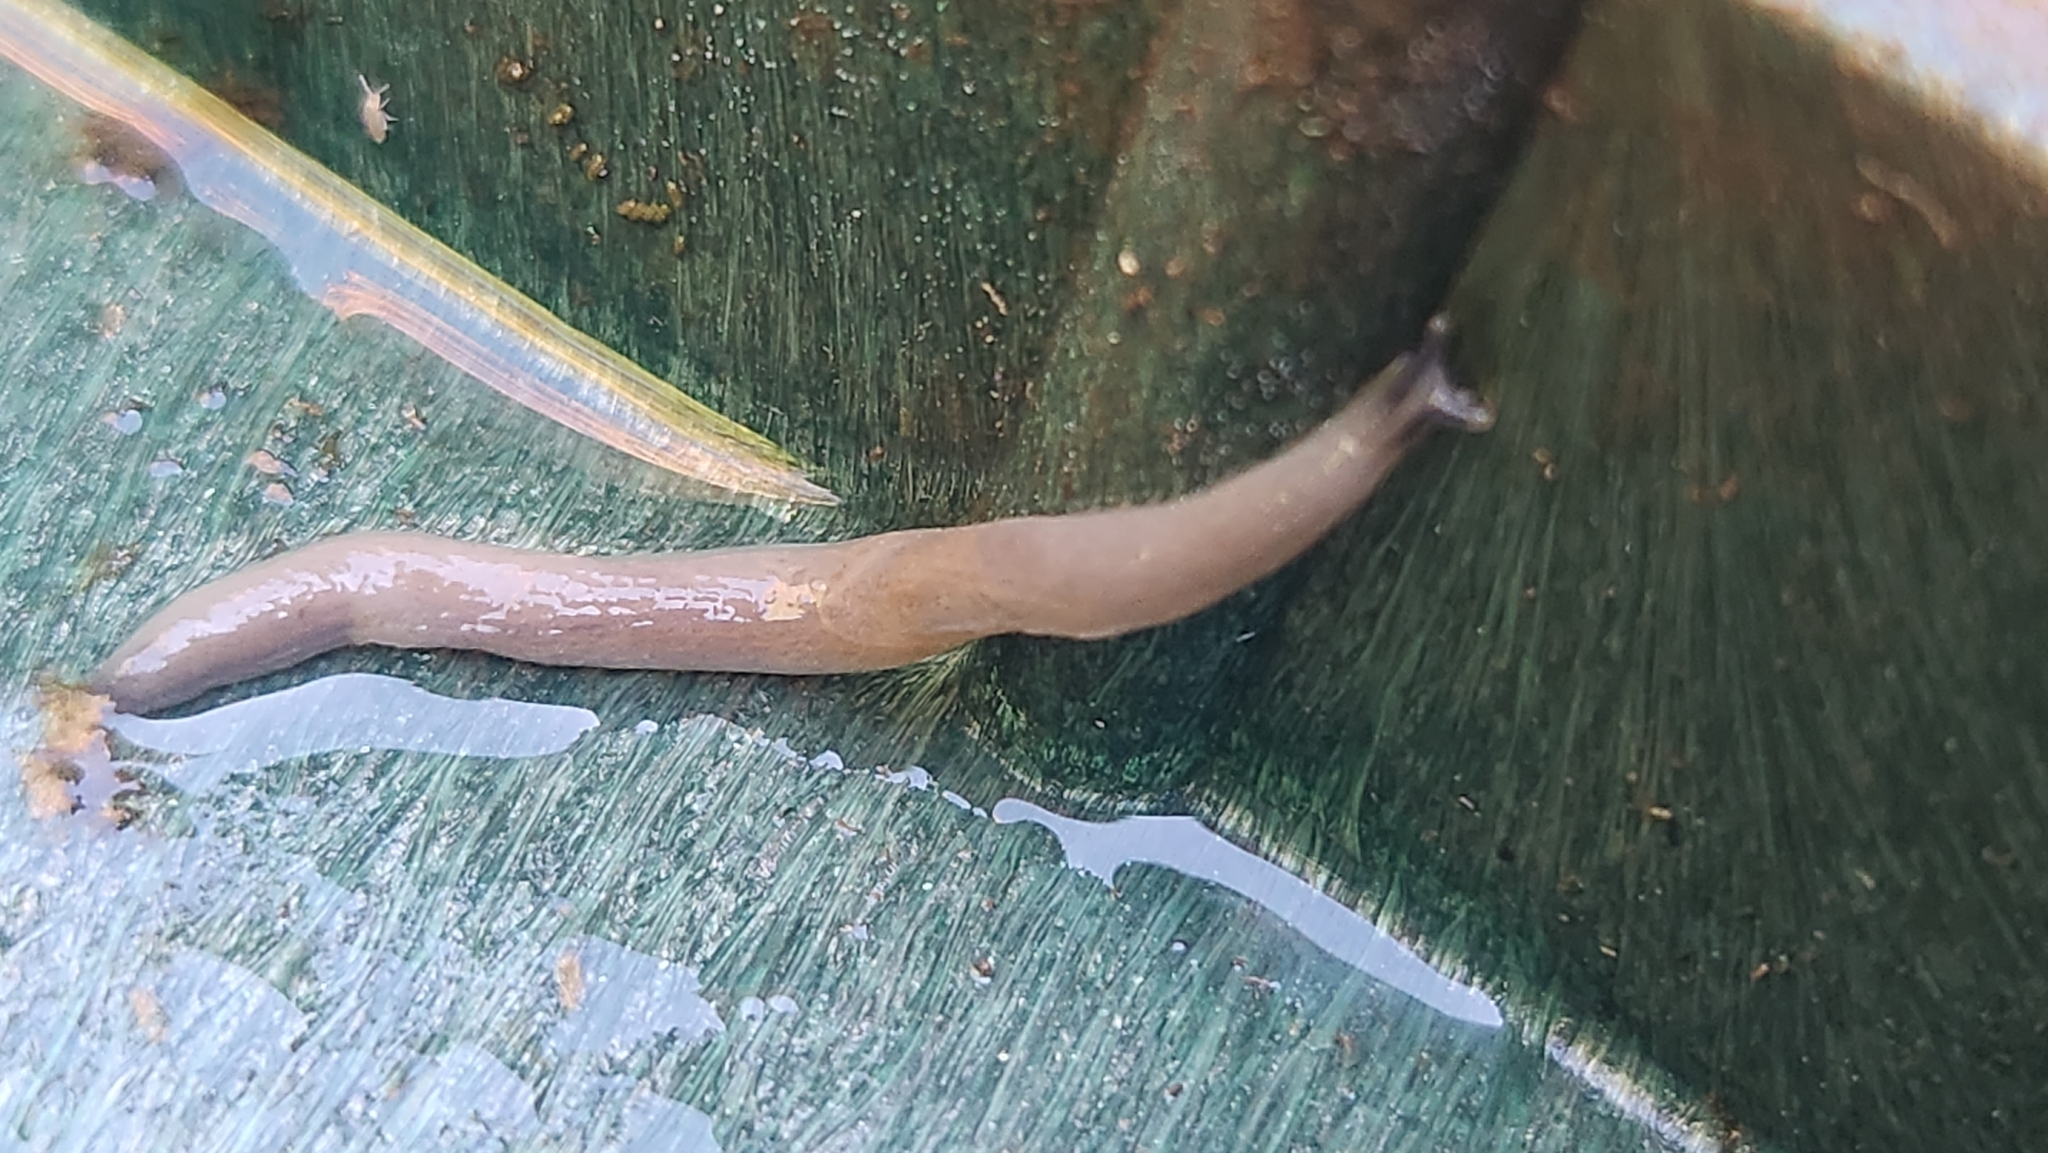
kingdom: Animalia
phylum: Mollusca
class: Gastropoda
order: Stylommatophora
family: Boettgerillidae
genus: Boettgerilla
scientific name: Boettgerilla pallens
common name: Worm slug
